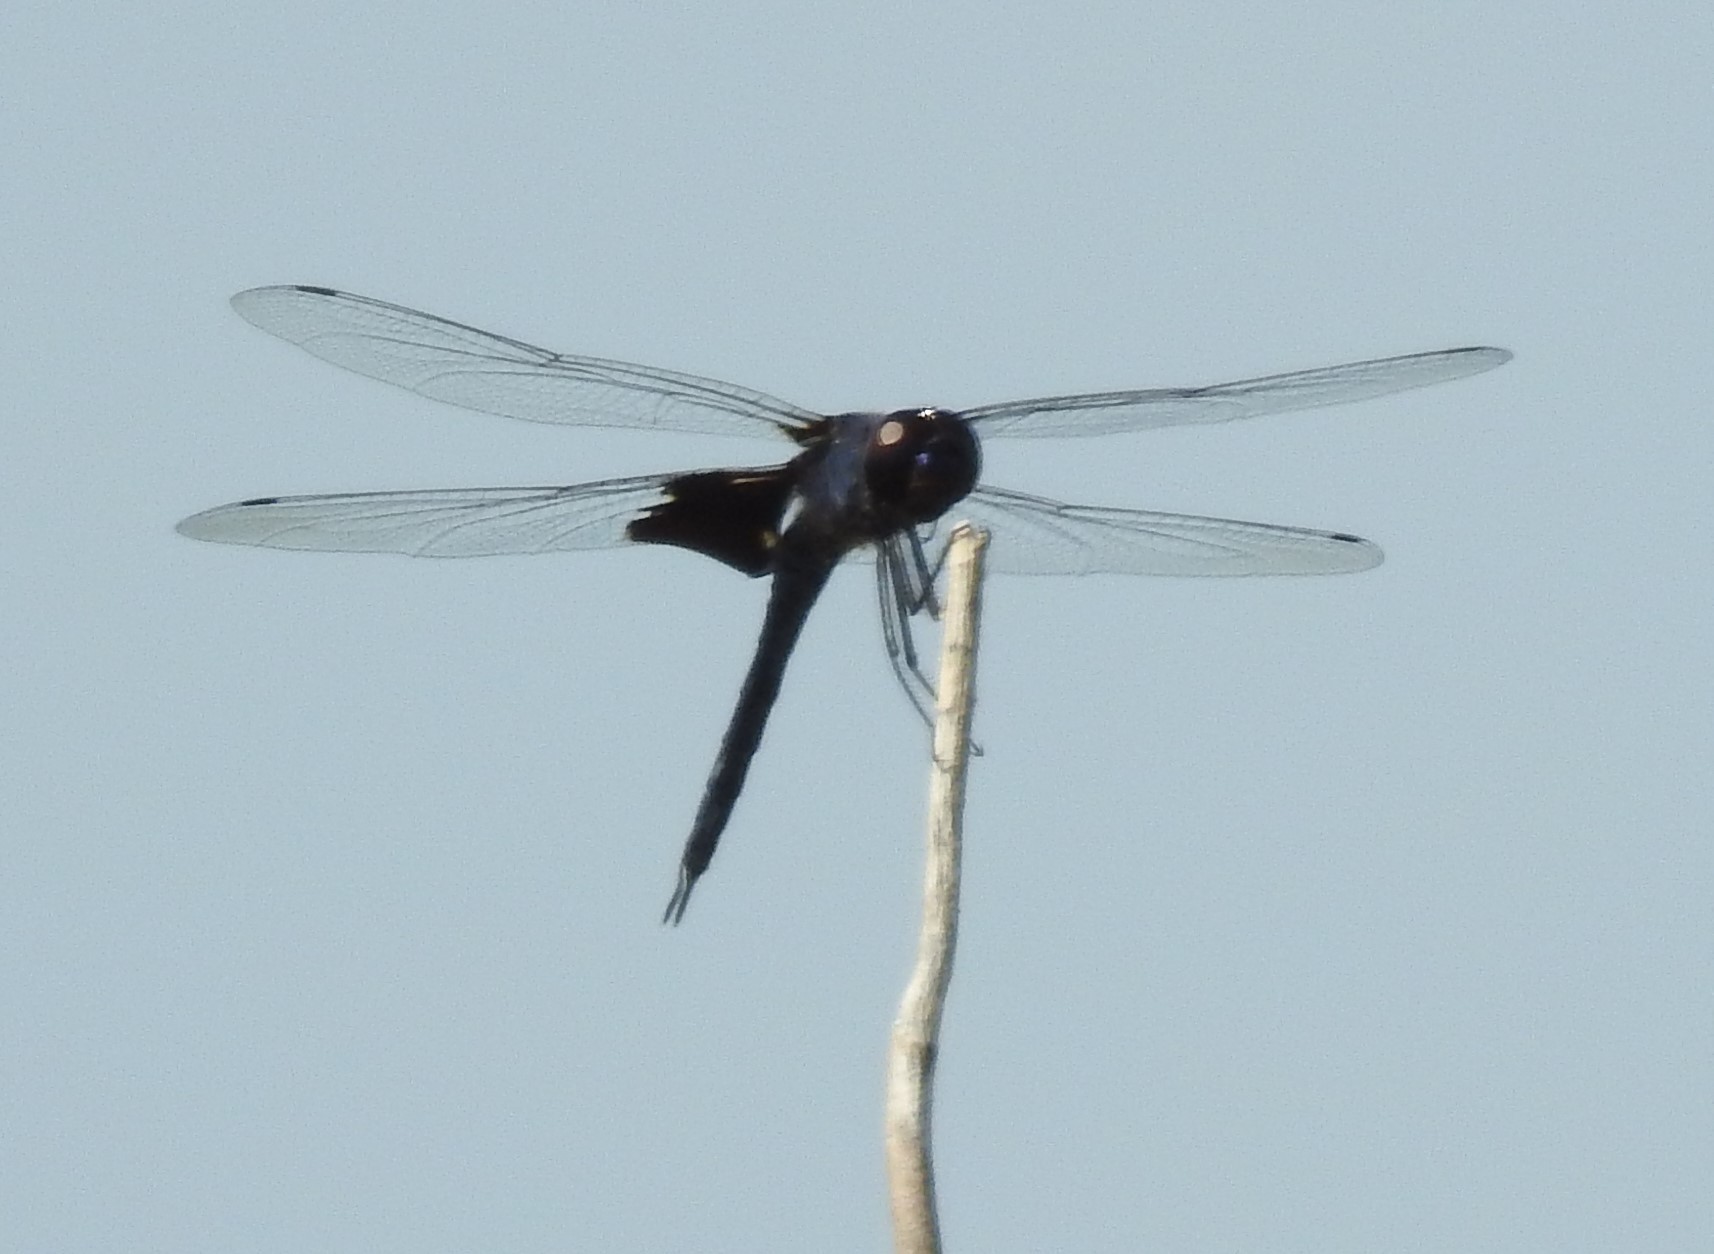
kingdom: Animalia
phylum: Arthropoda
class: Insecta
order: Odonata
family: Libellulidae
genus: Tramea
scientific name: Tramea lacerata
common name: Black saddlebags
